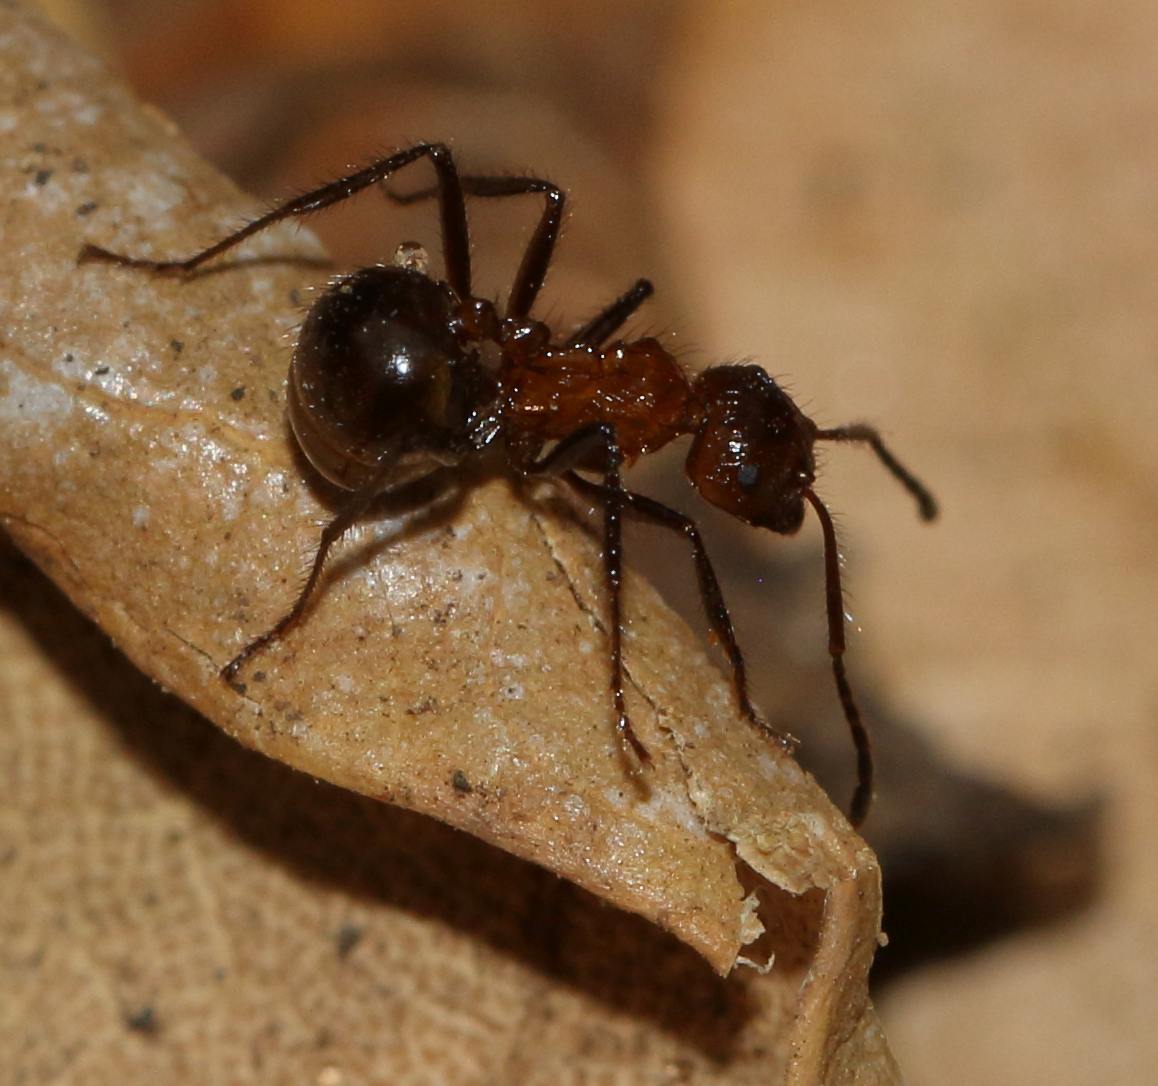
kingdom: Animalia
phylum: Arthropoda
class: Insecta
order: Hymenoptera
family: Formicidae
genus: Myrmicaria
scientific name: Myrmicaria natalensis
